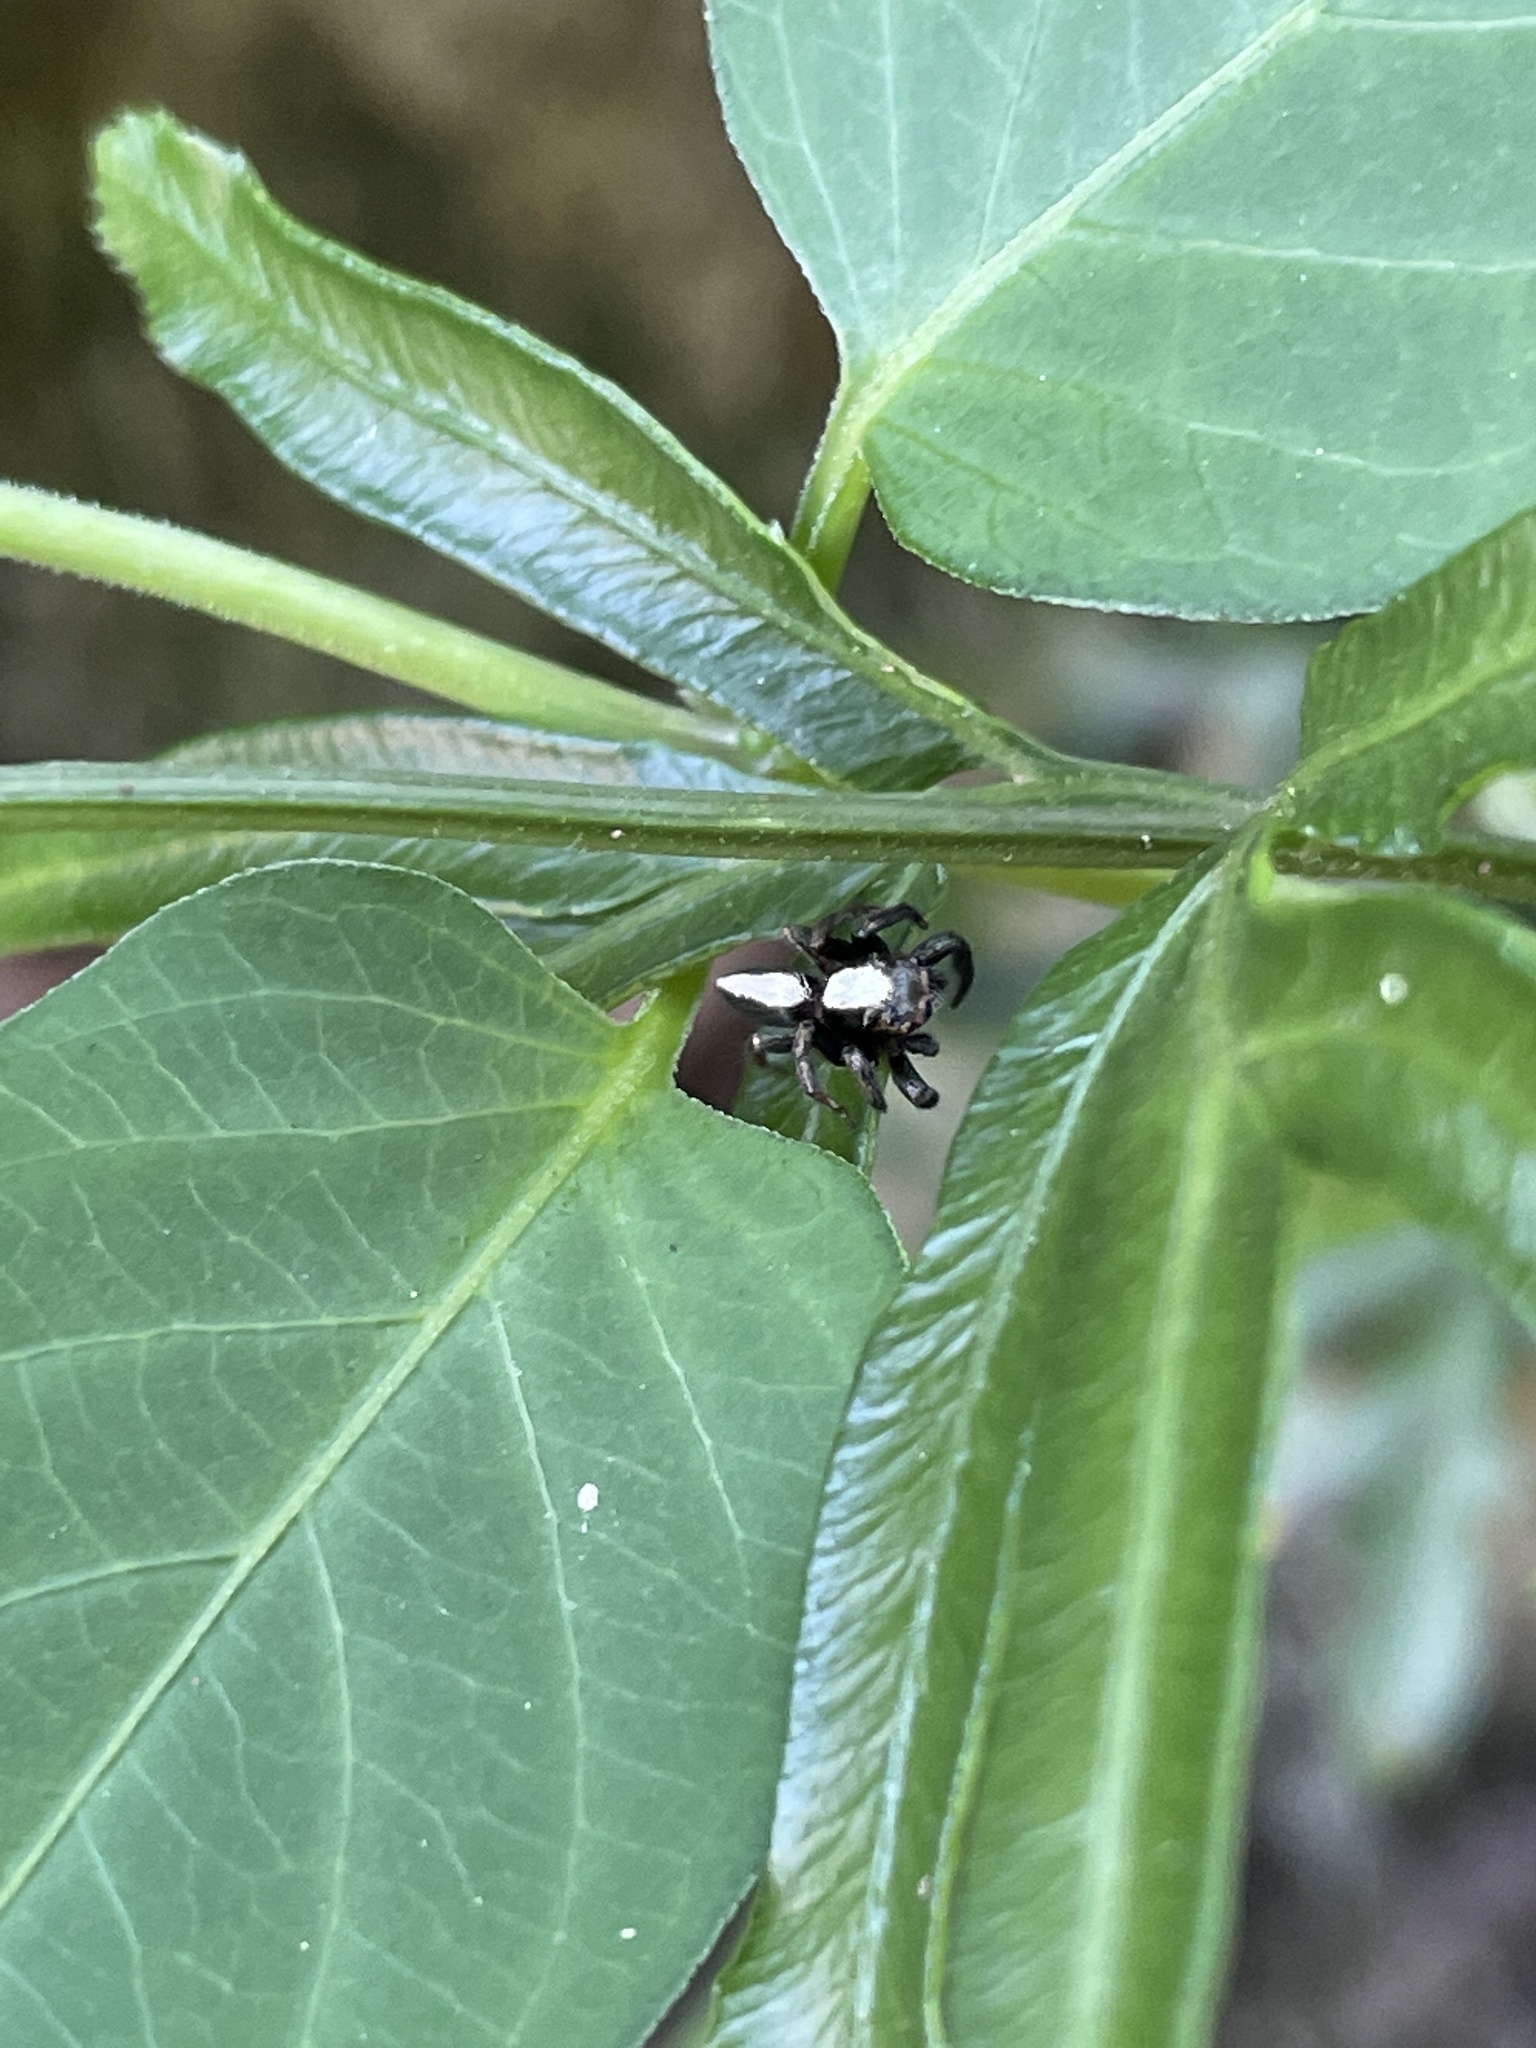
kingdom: Animalia
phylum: Arthropoda
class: Arachnida
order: Araneae
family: Salticidae
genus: Thyene
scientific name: Thyene orientalis
